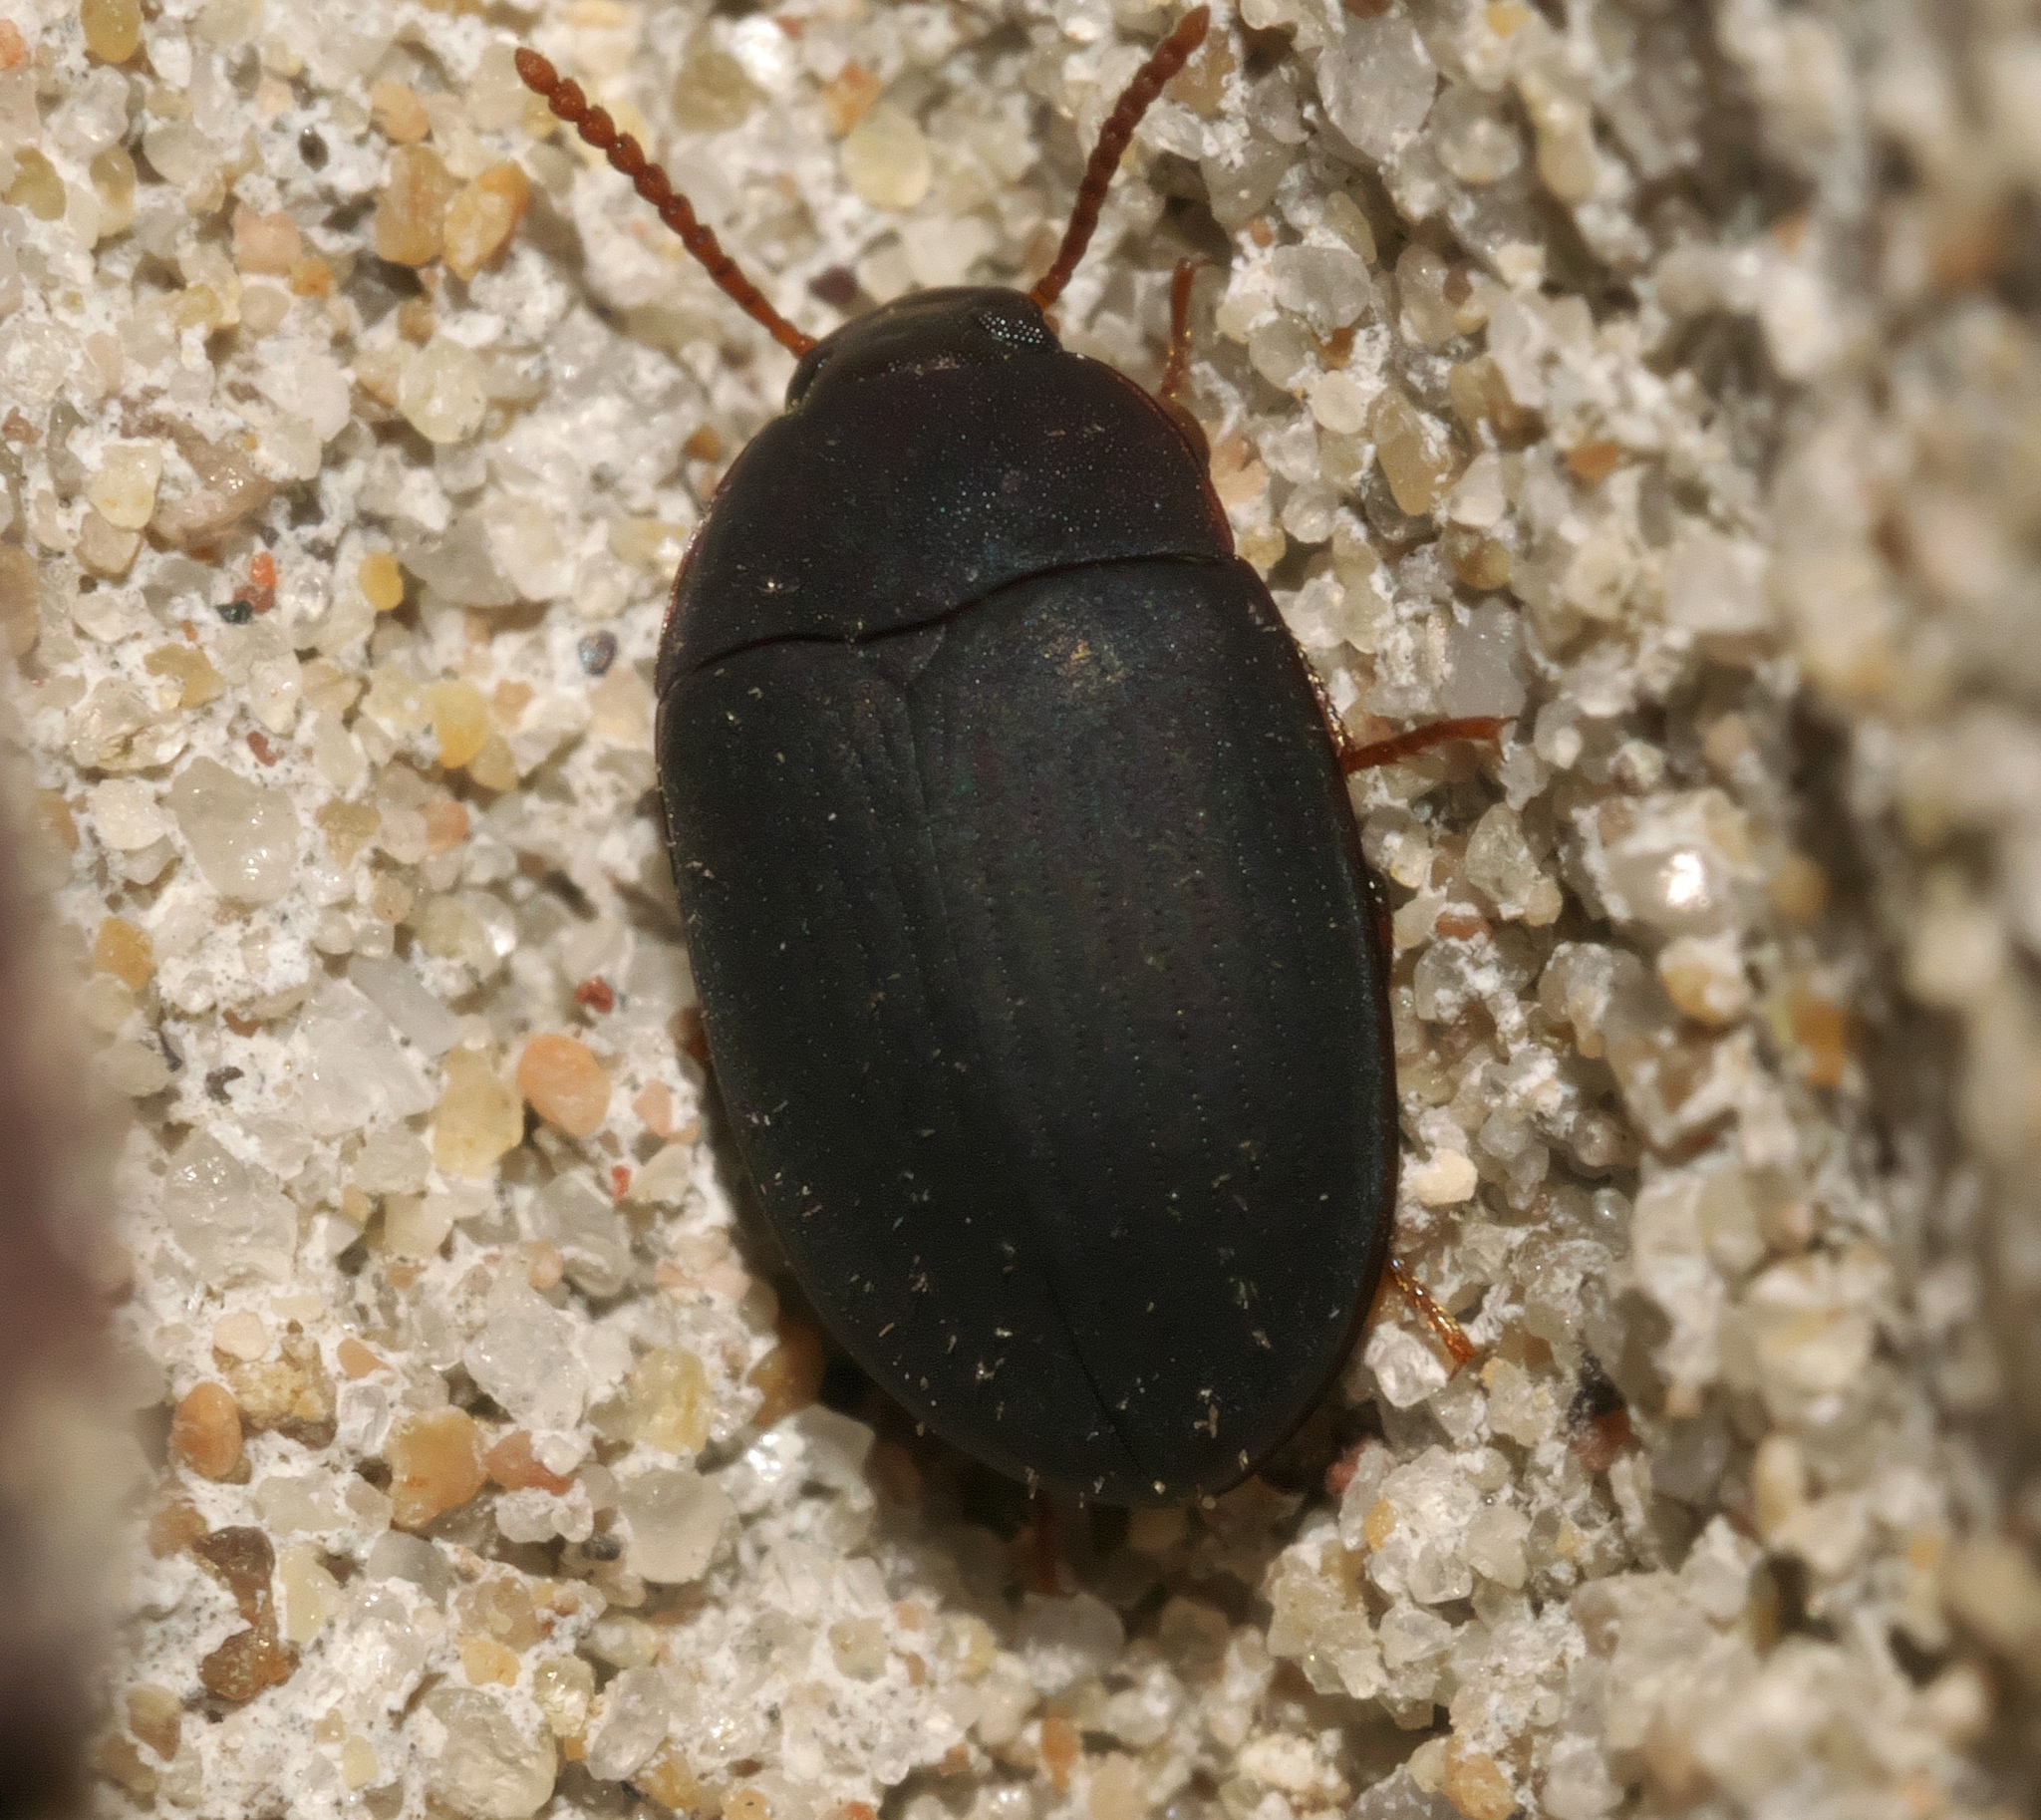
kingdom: Animalia
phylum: Arthropoda
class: Insecta
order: Coleoptera
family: Tenebrionidae
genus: Platydema
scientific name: Platydema ruficornis
